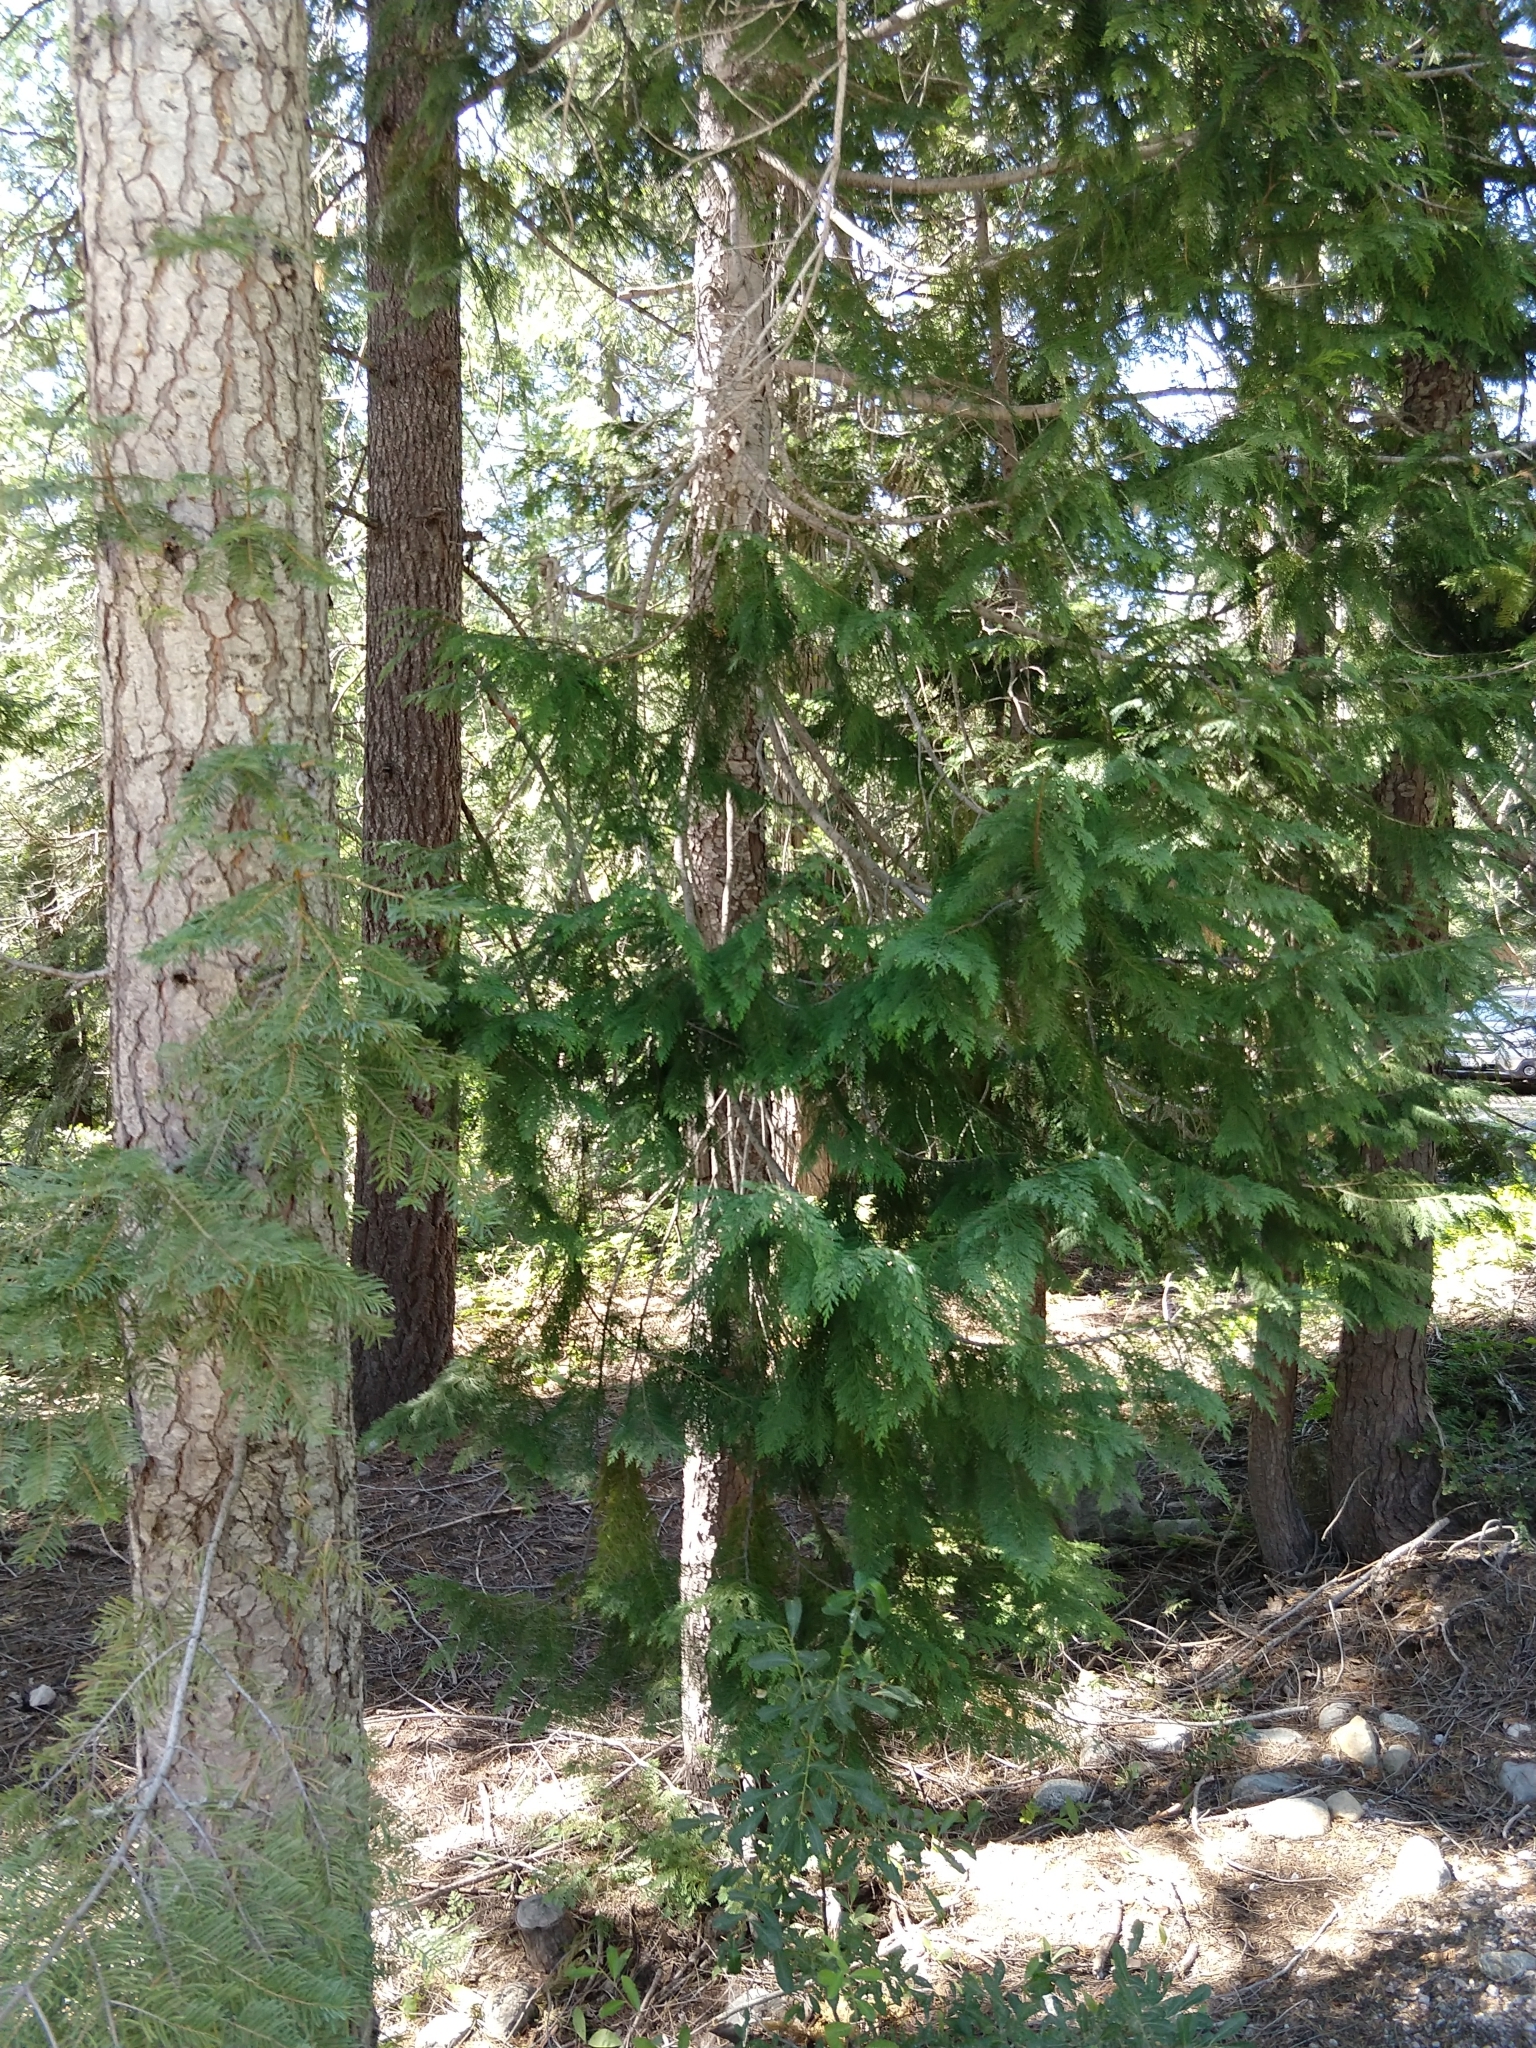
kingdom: Plantae
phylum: Tracheophyta
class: Pinopsida
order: Pinales
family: Cupressaceae
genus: Chamaecyparis
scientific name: Chamaecyparis lawsoniana
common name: Lawson's cypress
